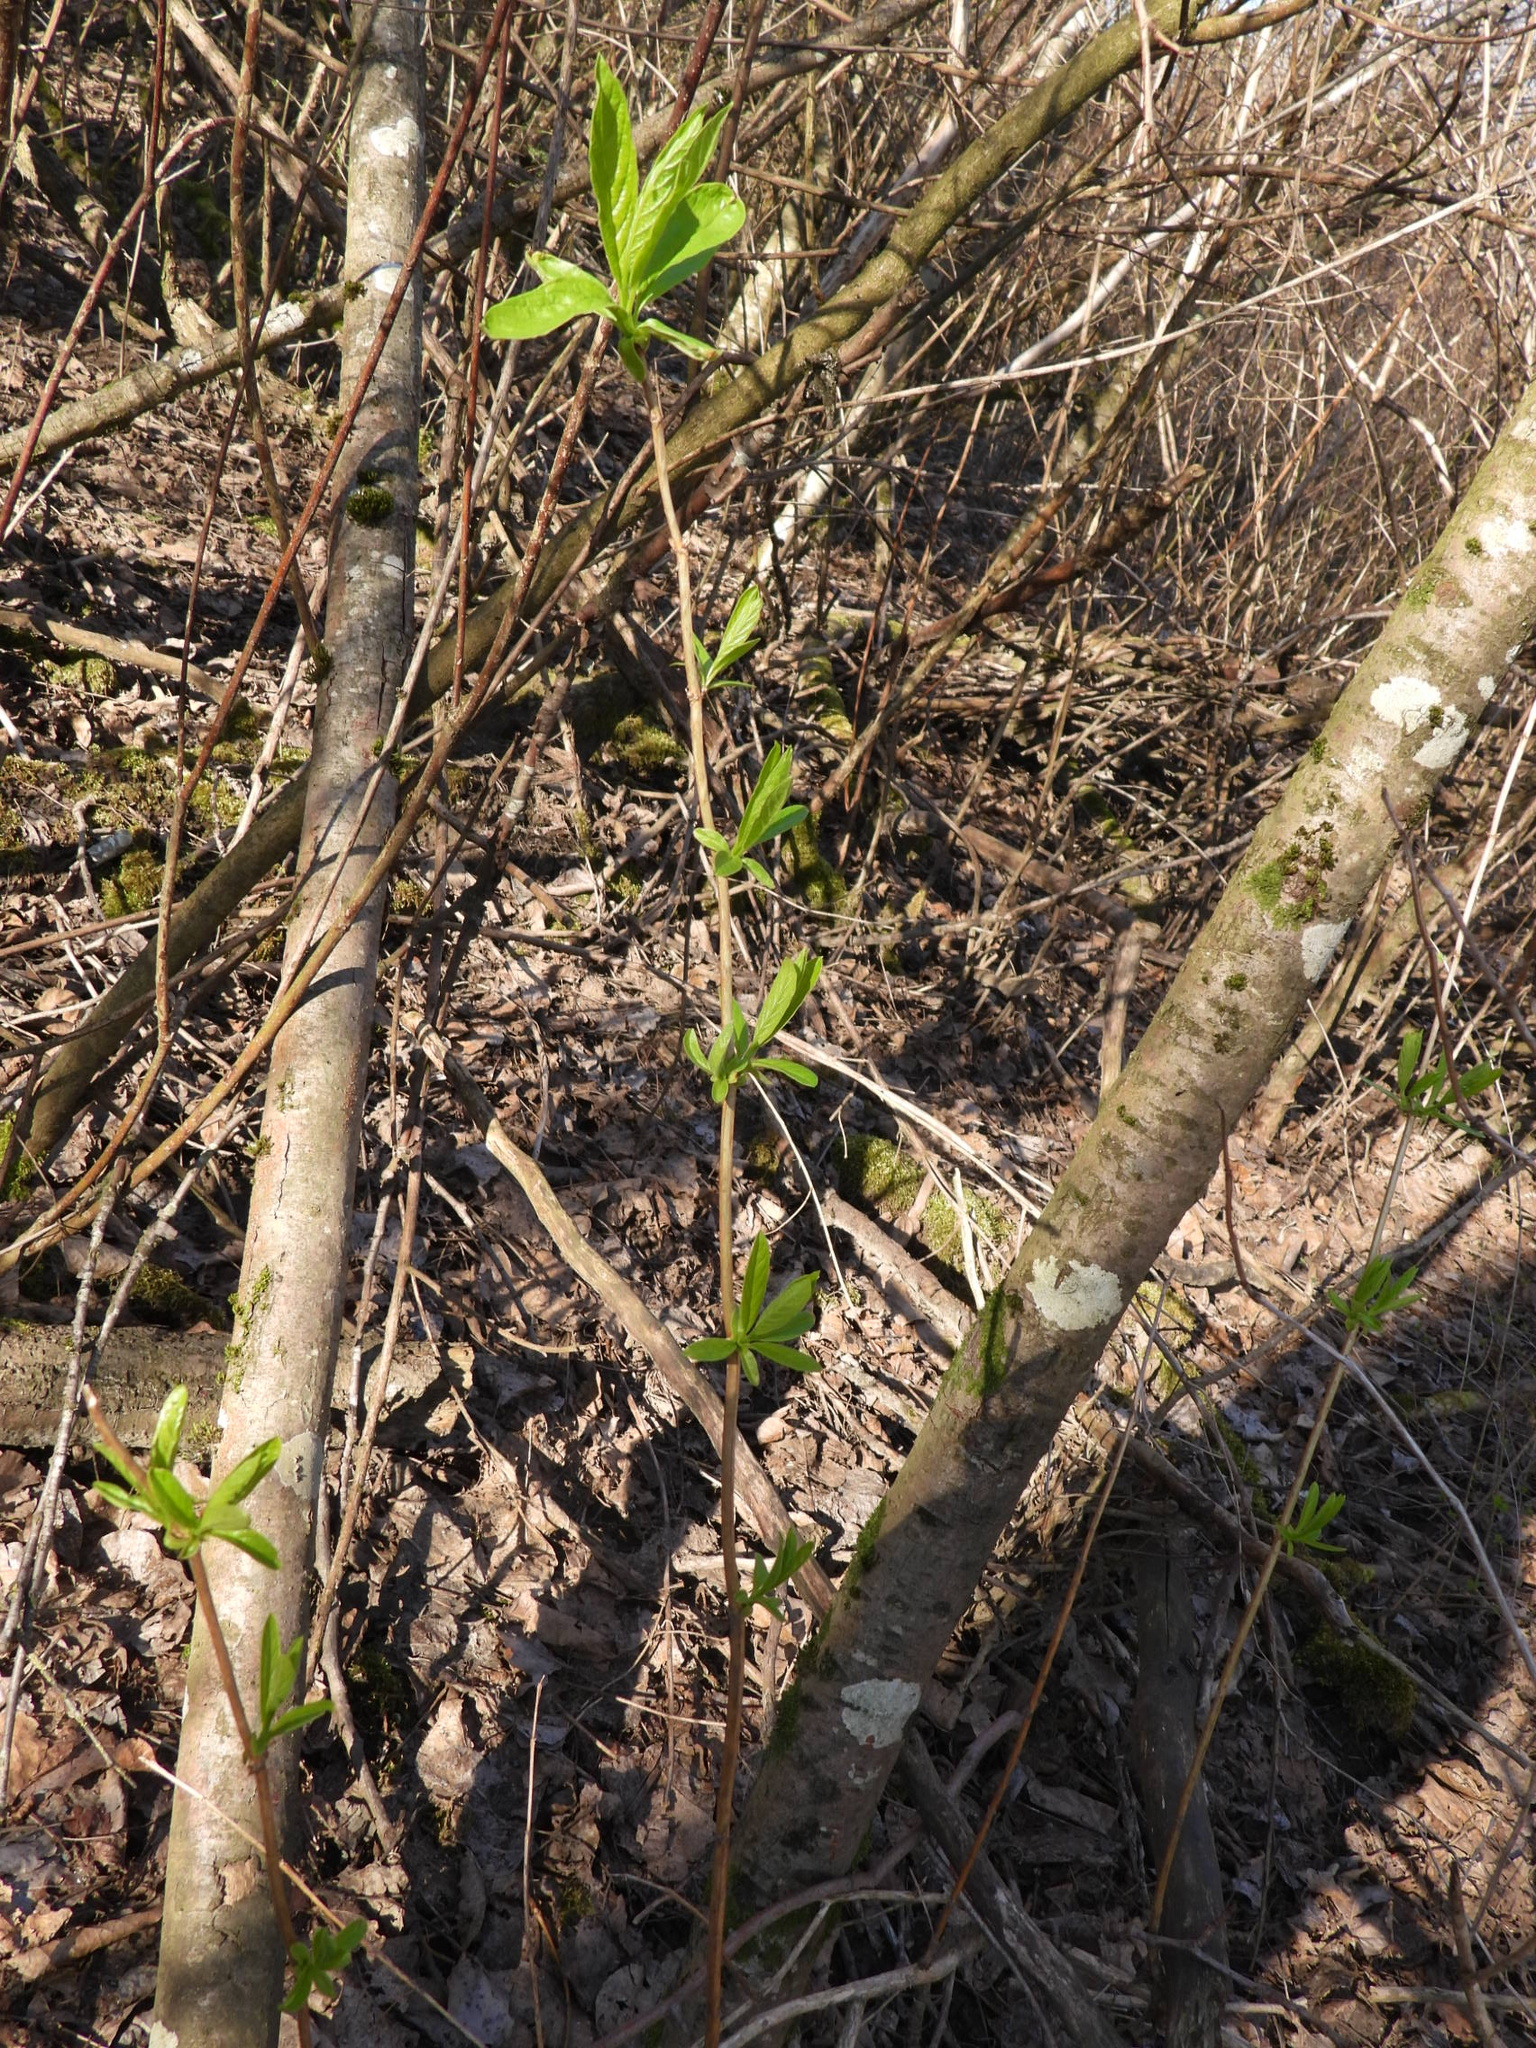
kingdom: Plantae
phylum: Tracheophyta
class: Magnoliopsida
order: Rosales
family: Rosaceae
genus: Oemleria
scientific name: Oemleria cerasiformis
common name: Osoberry
